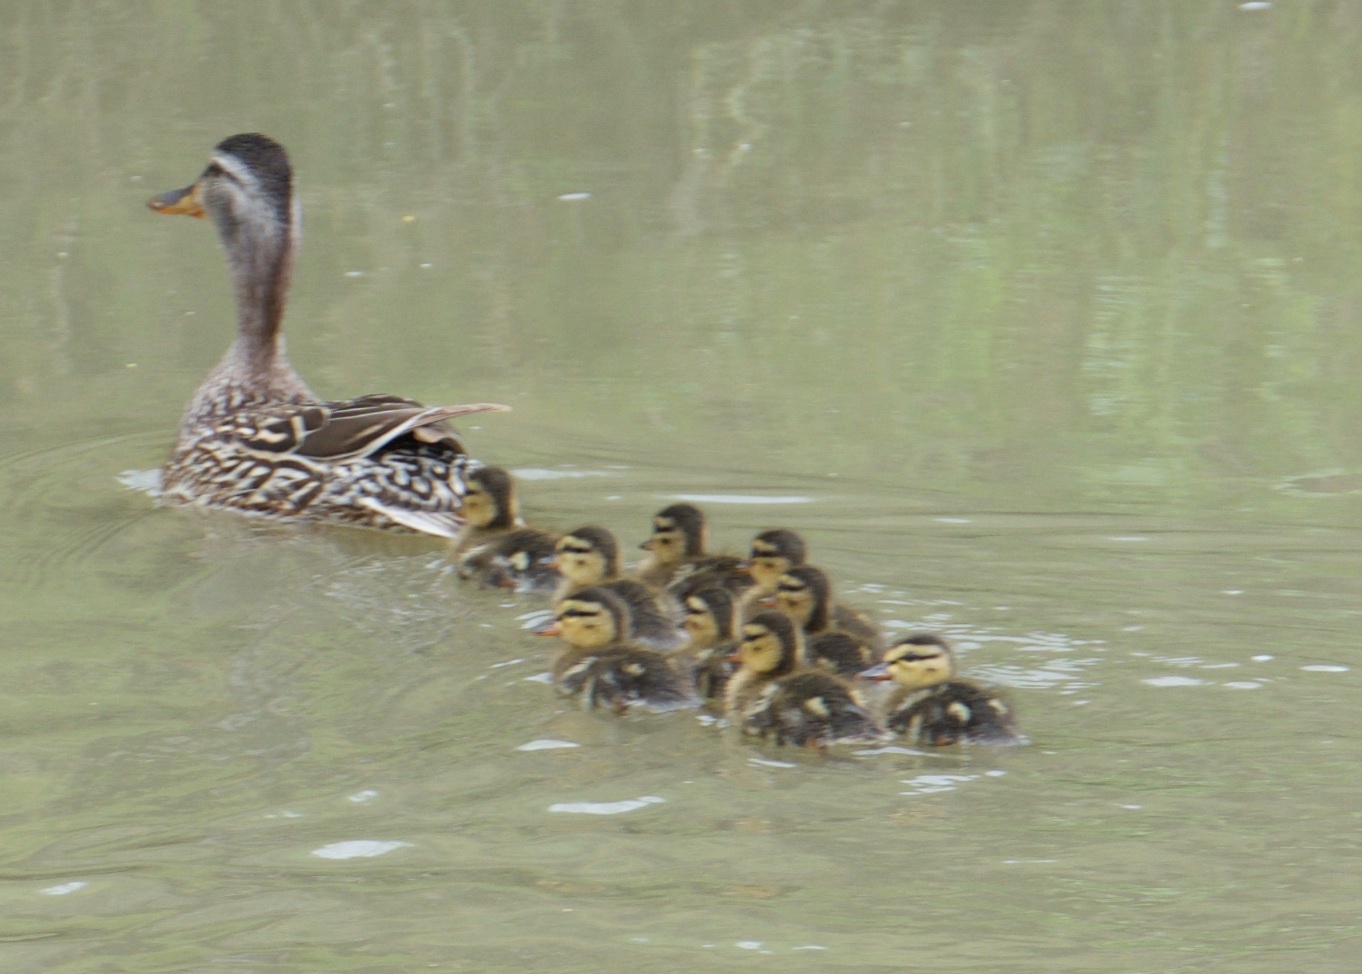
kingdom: Animalia
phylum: Chordata
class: Aves
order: Anseriformes
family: Anatidae
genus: Anas
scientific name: Anas platyrhynchos
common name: Mallard
